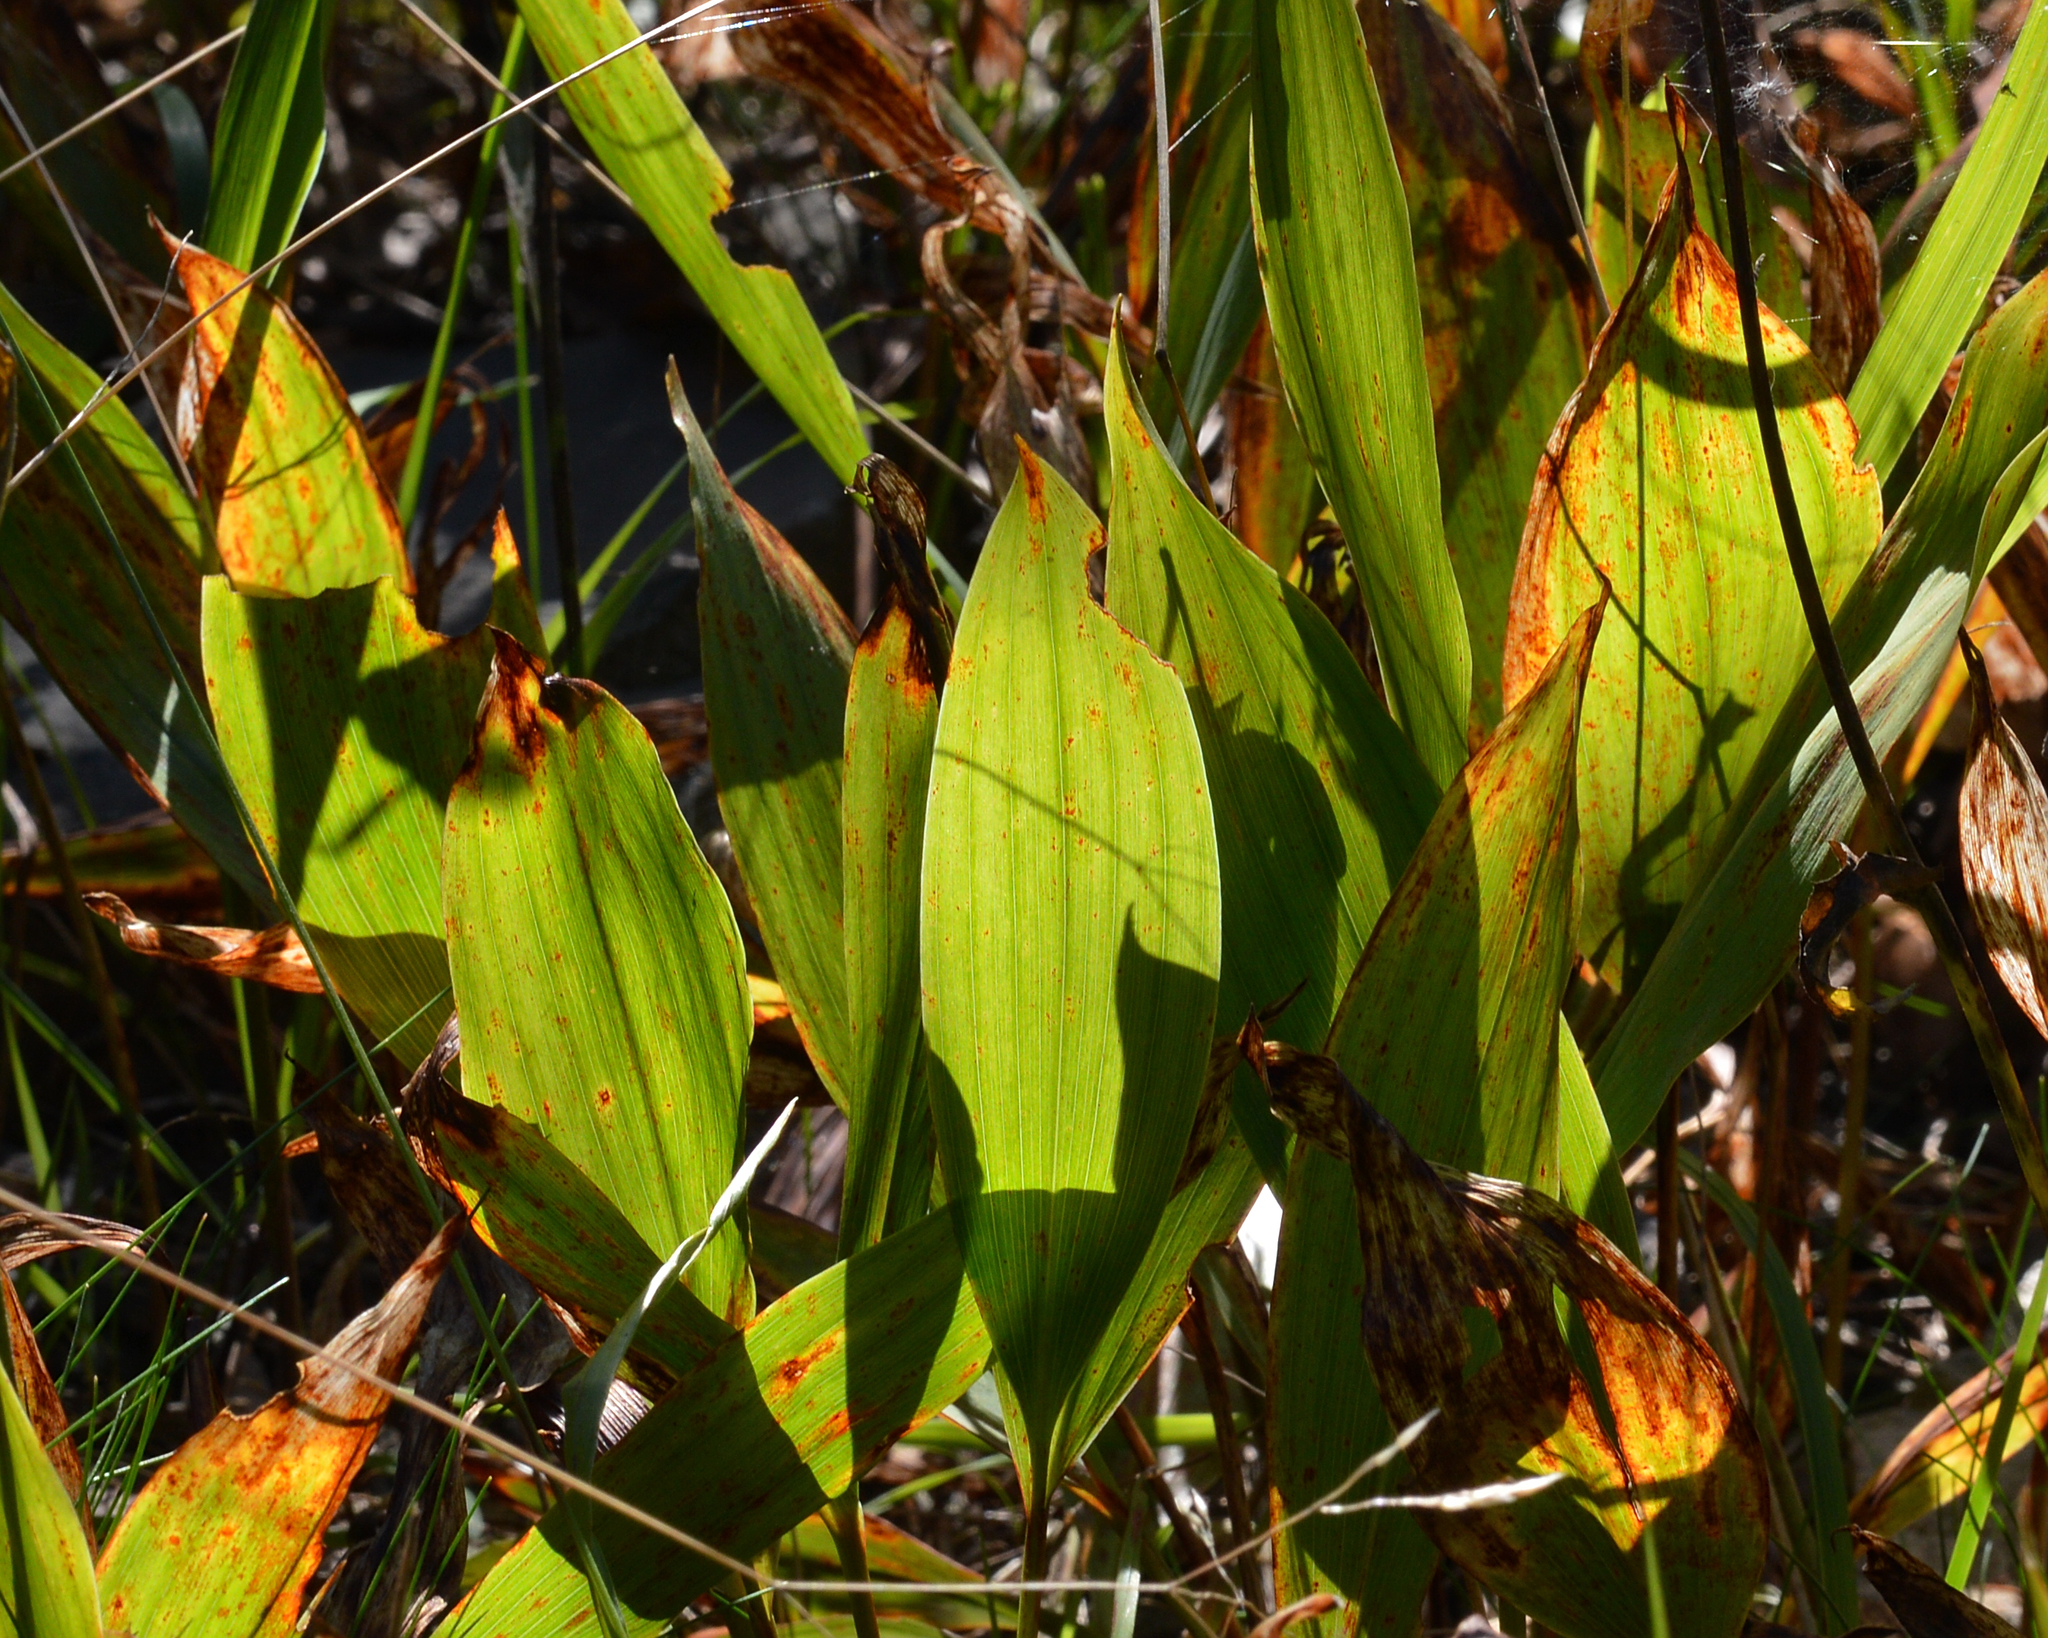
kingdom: Plantae
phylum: Tracheophyta
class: Liliopsida
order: Asparagales
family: Asparagaceae
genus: Convallaria
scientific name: Convallaria majalis
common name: Lily-of-the-valley
